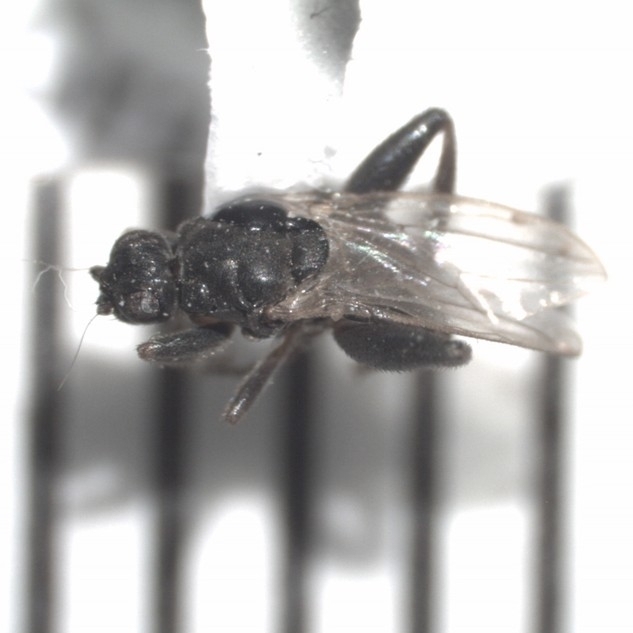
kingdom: Animalia
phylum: Arthropoda
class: Insecta
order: Diptera
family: Sphaeroceridae
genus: Sphaerocera
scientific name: Sphaerocera curvipes
